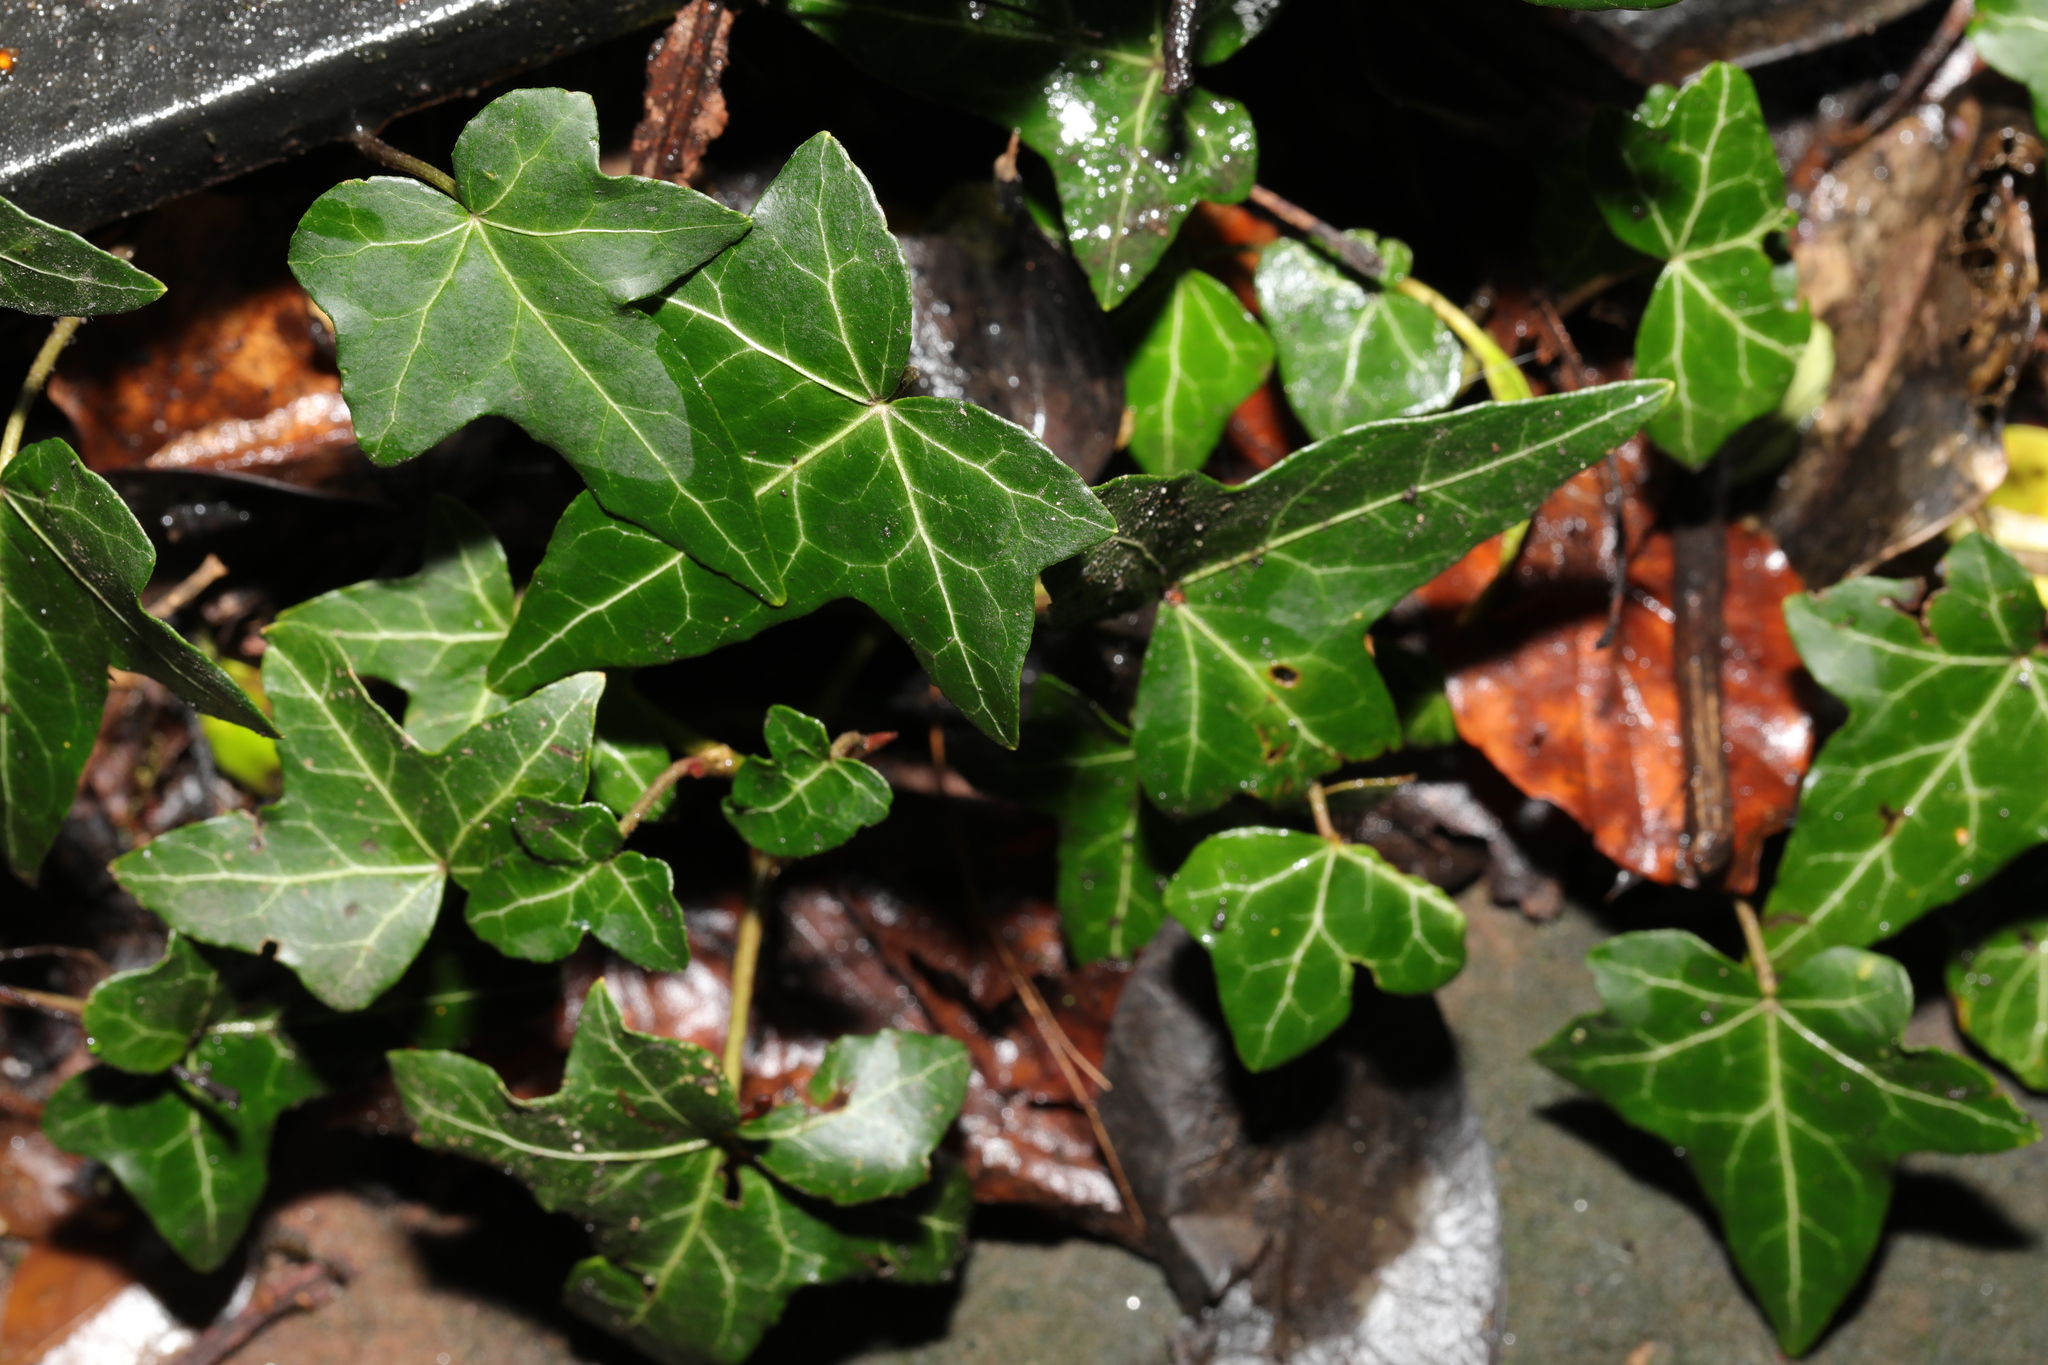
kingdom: Plantae
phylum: Tracheophyta
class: Magnoliopsida
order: Apiales
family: Araliaceae
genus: Hedera
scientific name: Hedera helix
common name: Ivy
